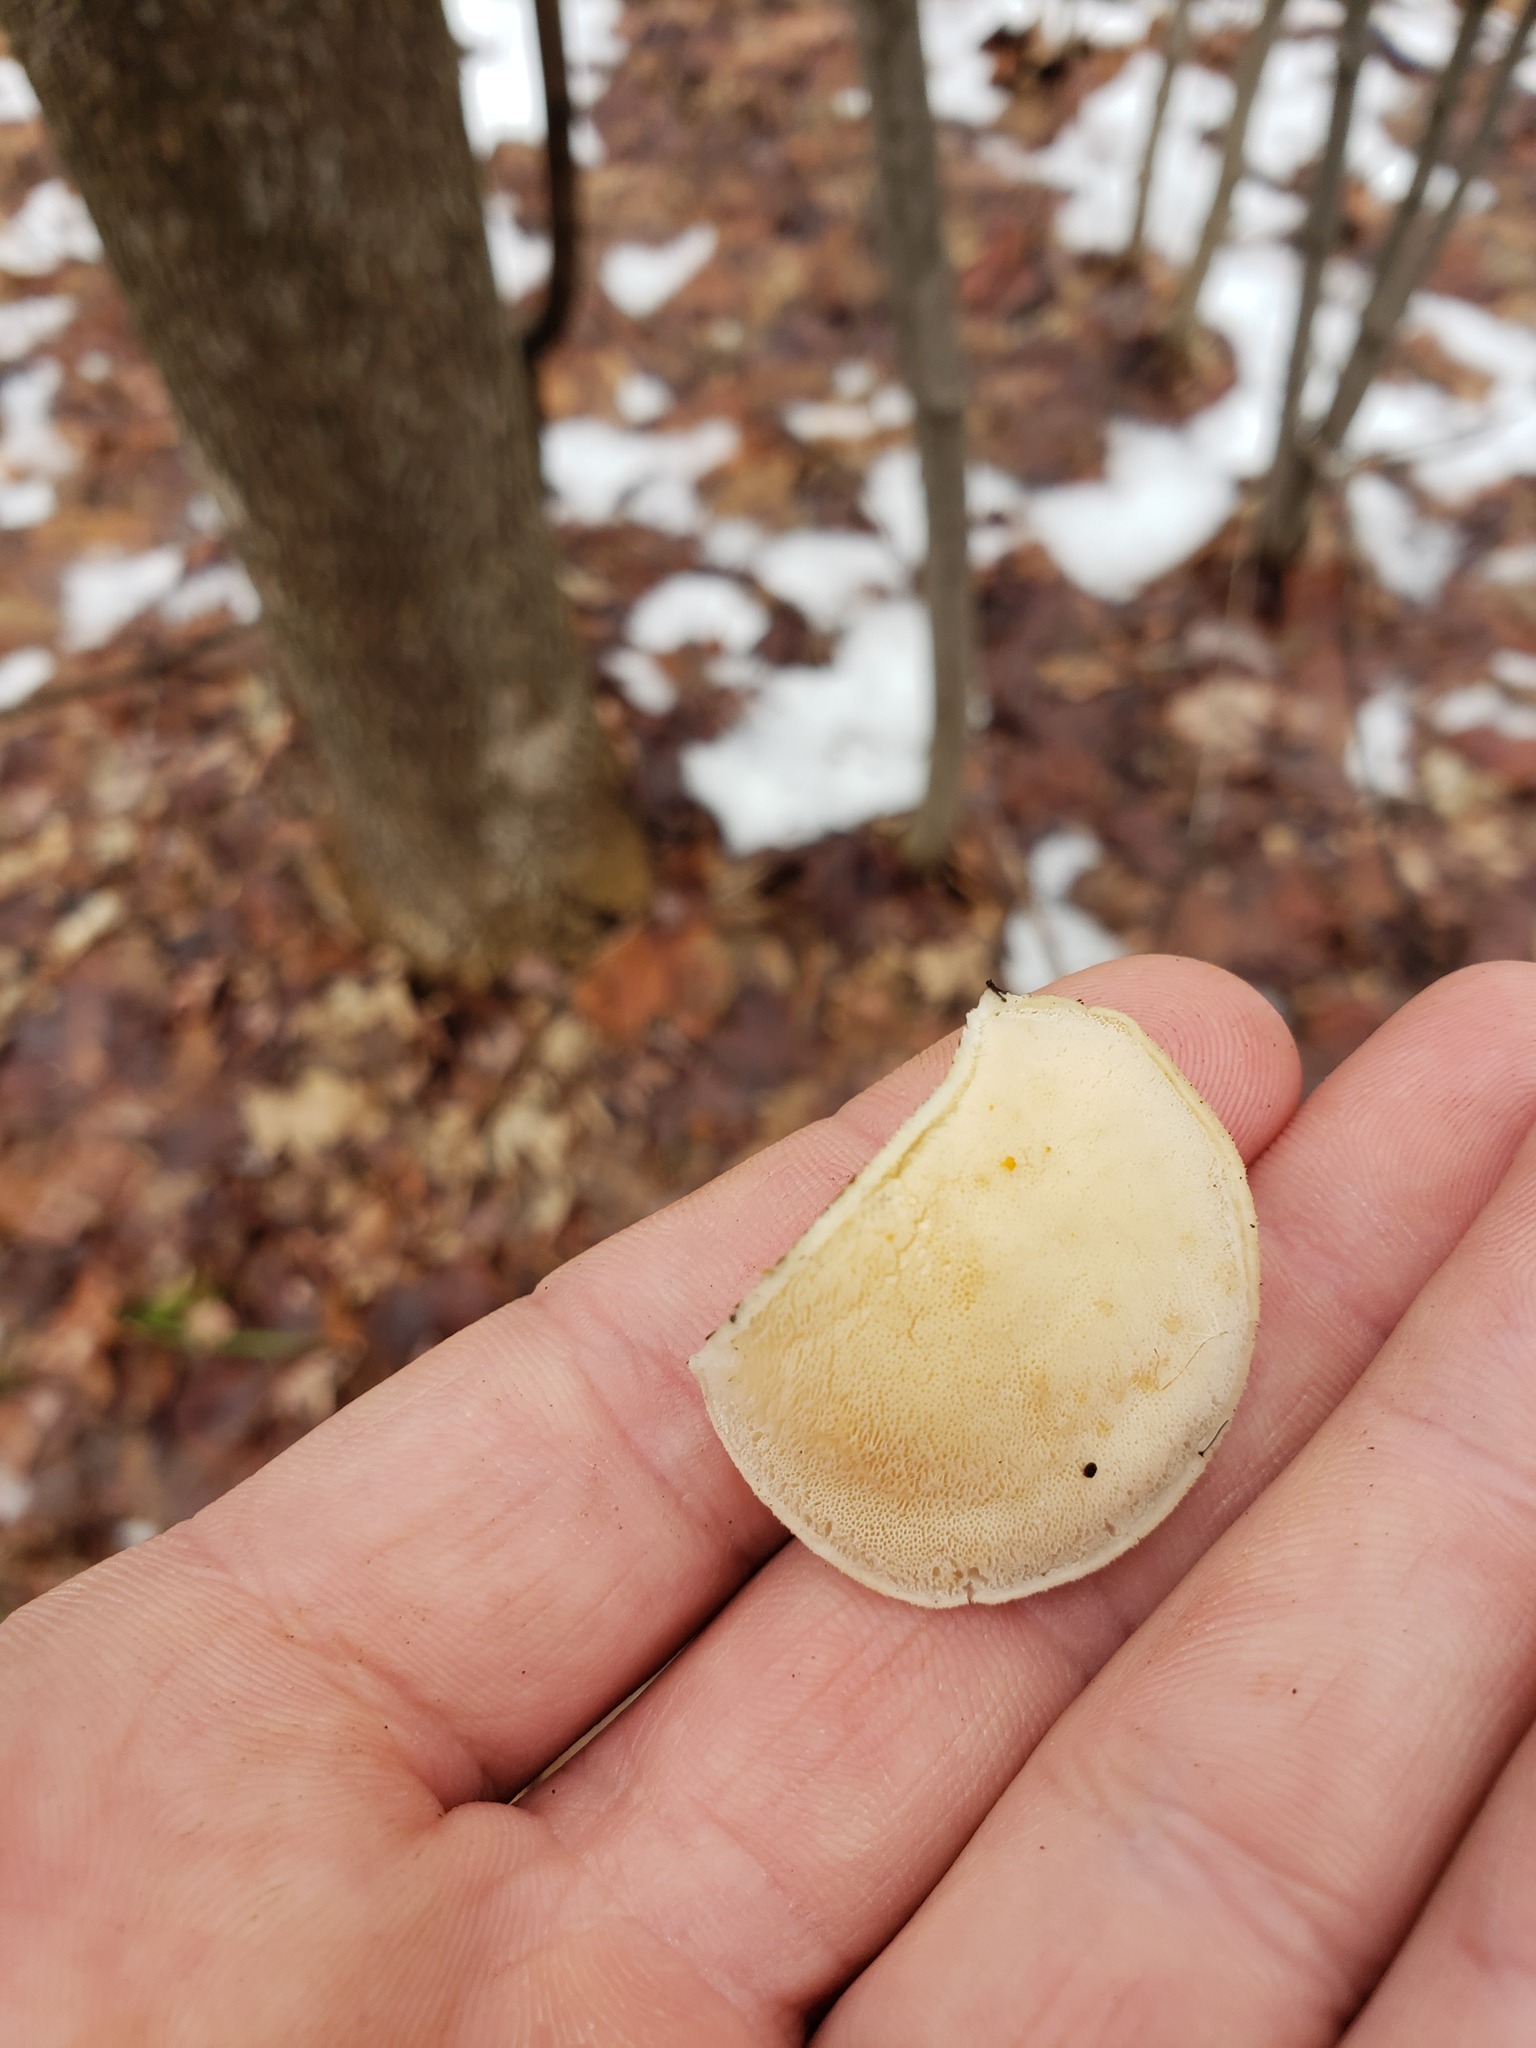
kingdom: Fungi
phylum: Basidiomycota
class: Agaricomycetes
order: Polyporales
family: Incrustoporiaceae
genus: Tyromyces
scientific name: Tyromyces chioneus
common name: White cheese polypore
